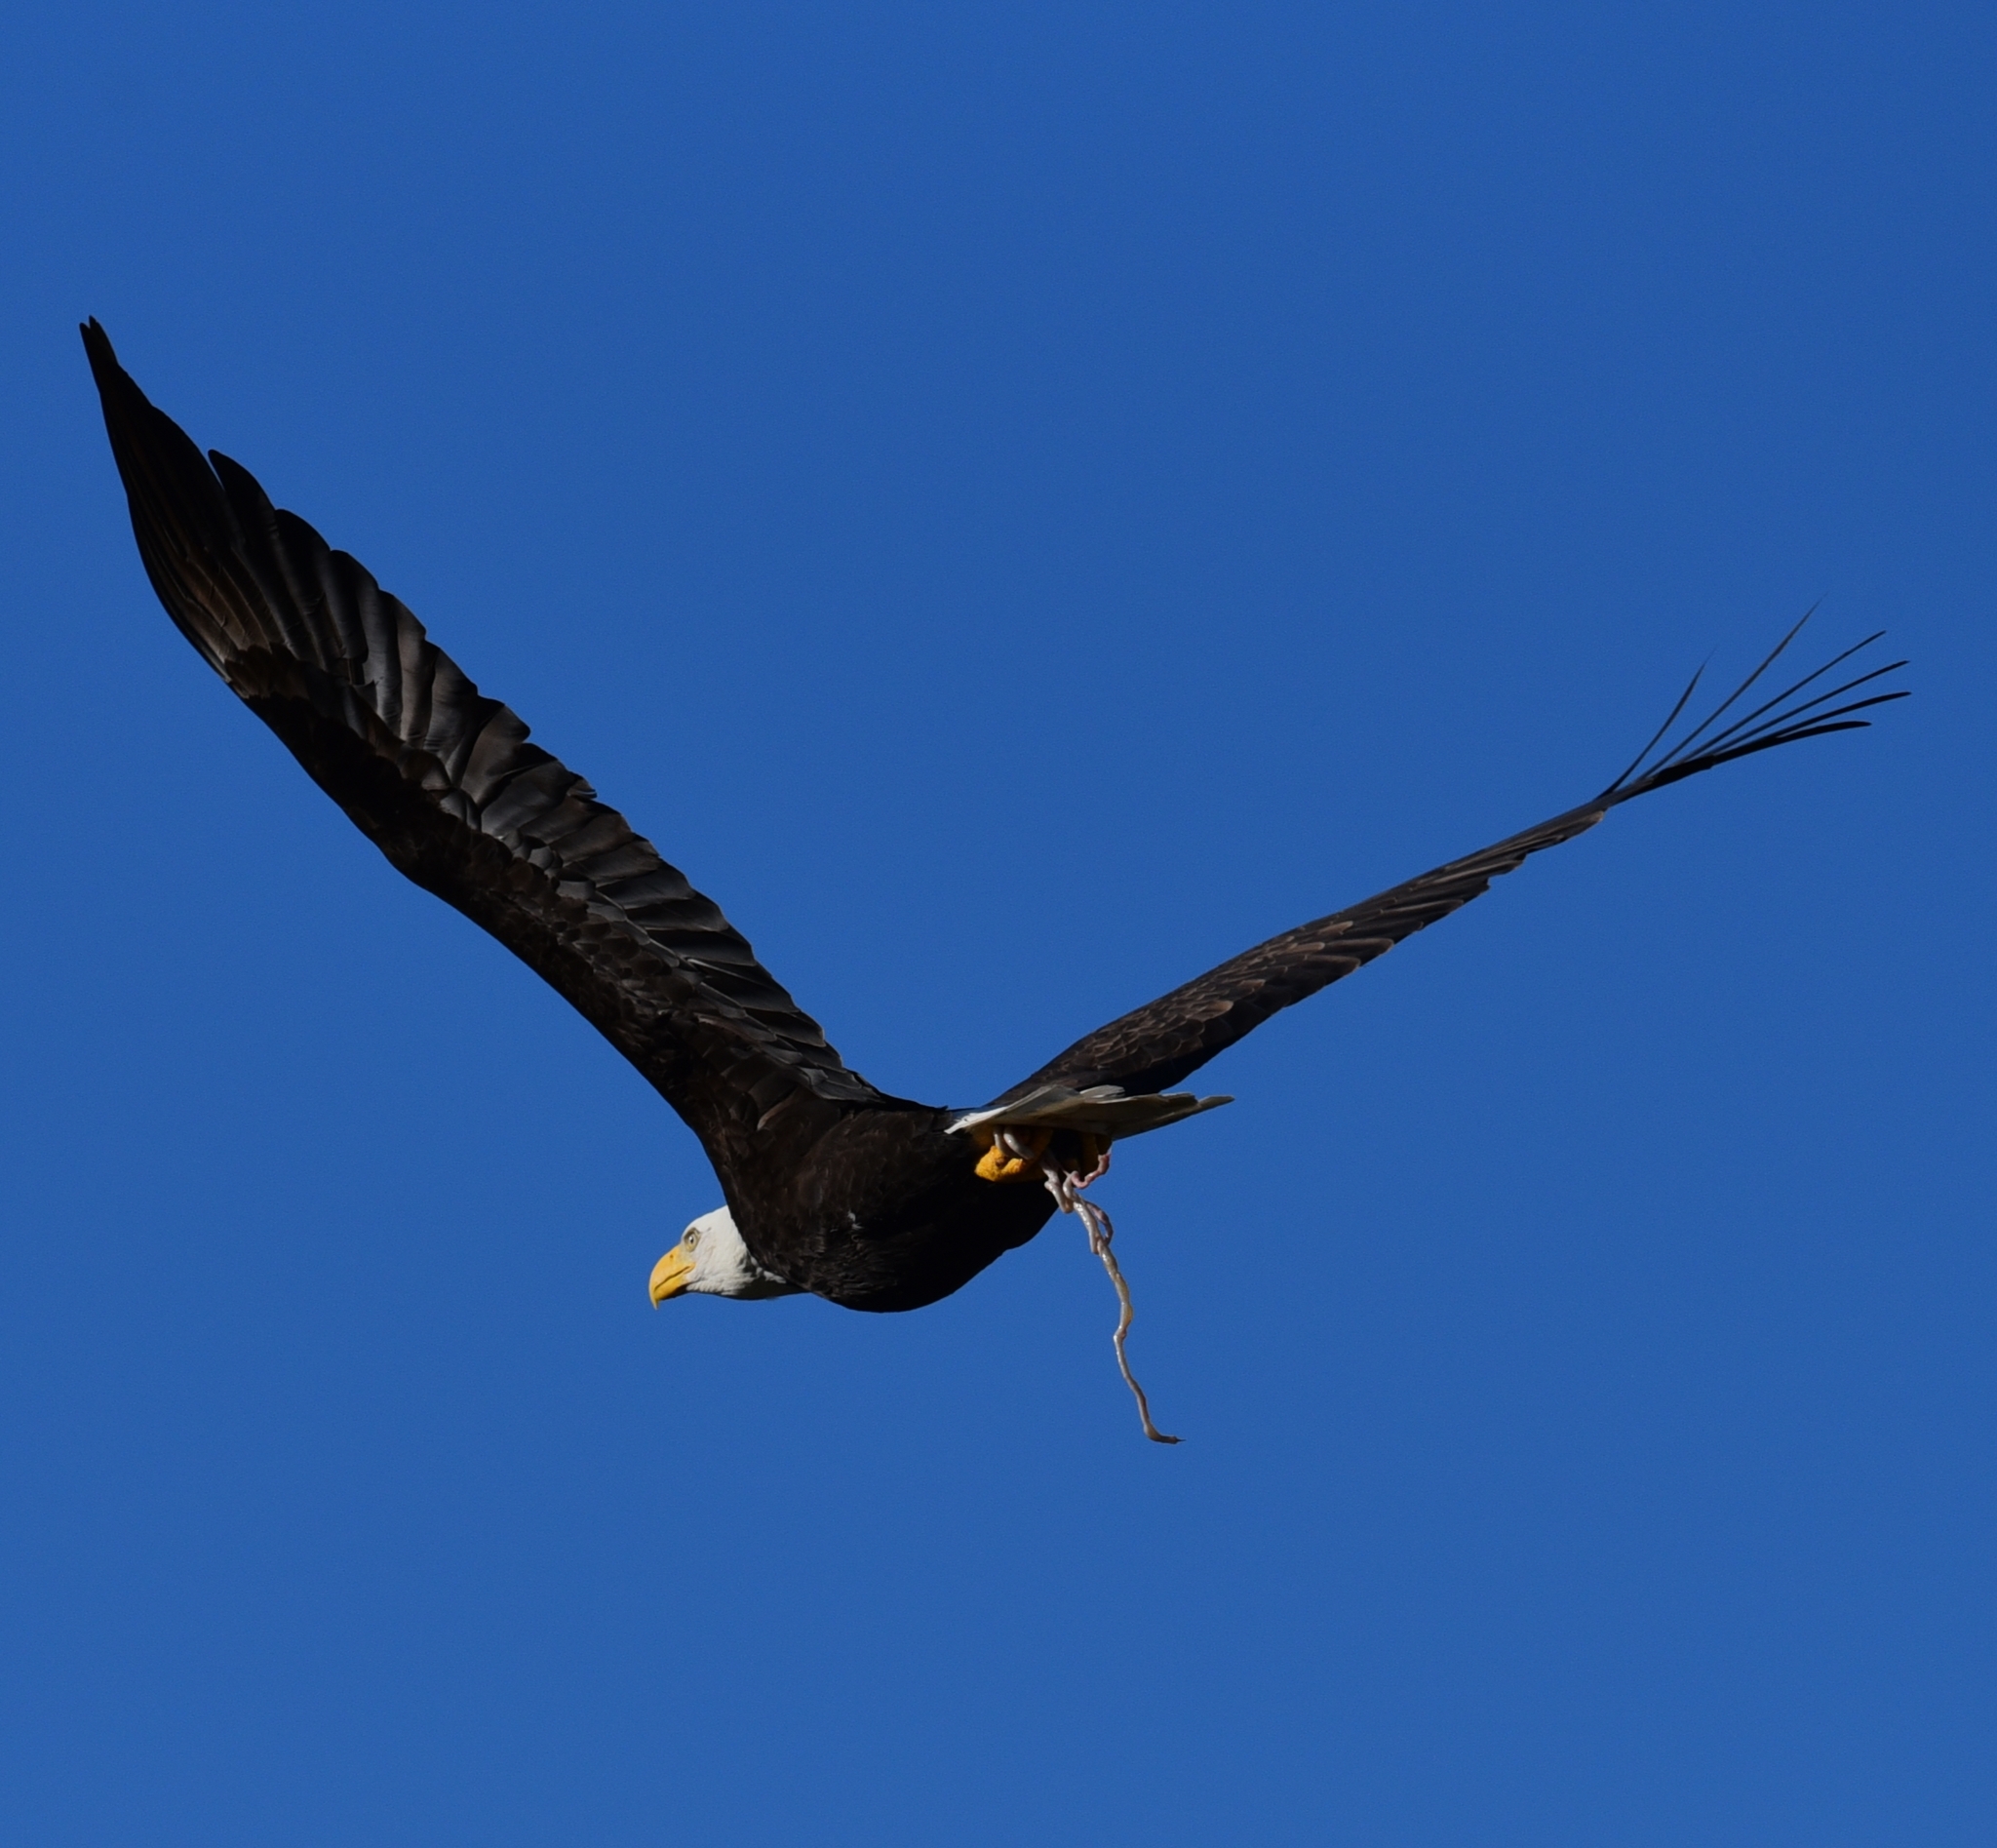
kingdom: Animalia
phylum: Chordata
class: Aves
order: Accipitriformes
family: Accipitridae
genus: Haliaeetus
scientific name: Haliaeetus leucocephalus
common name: Bald eagle
